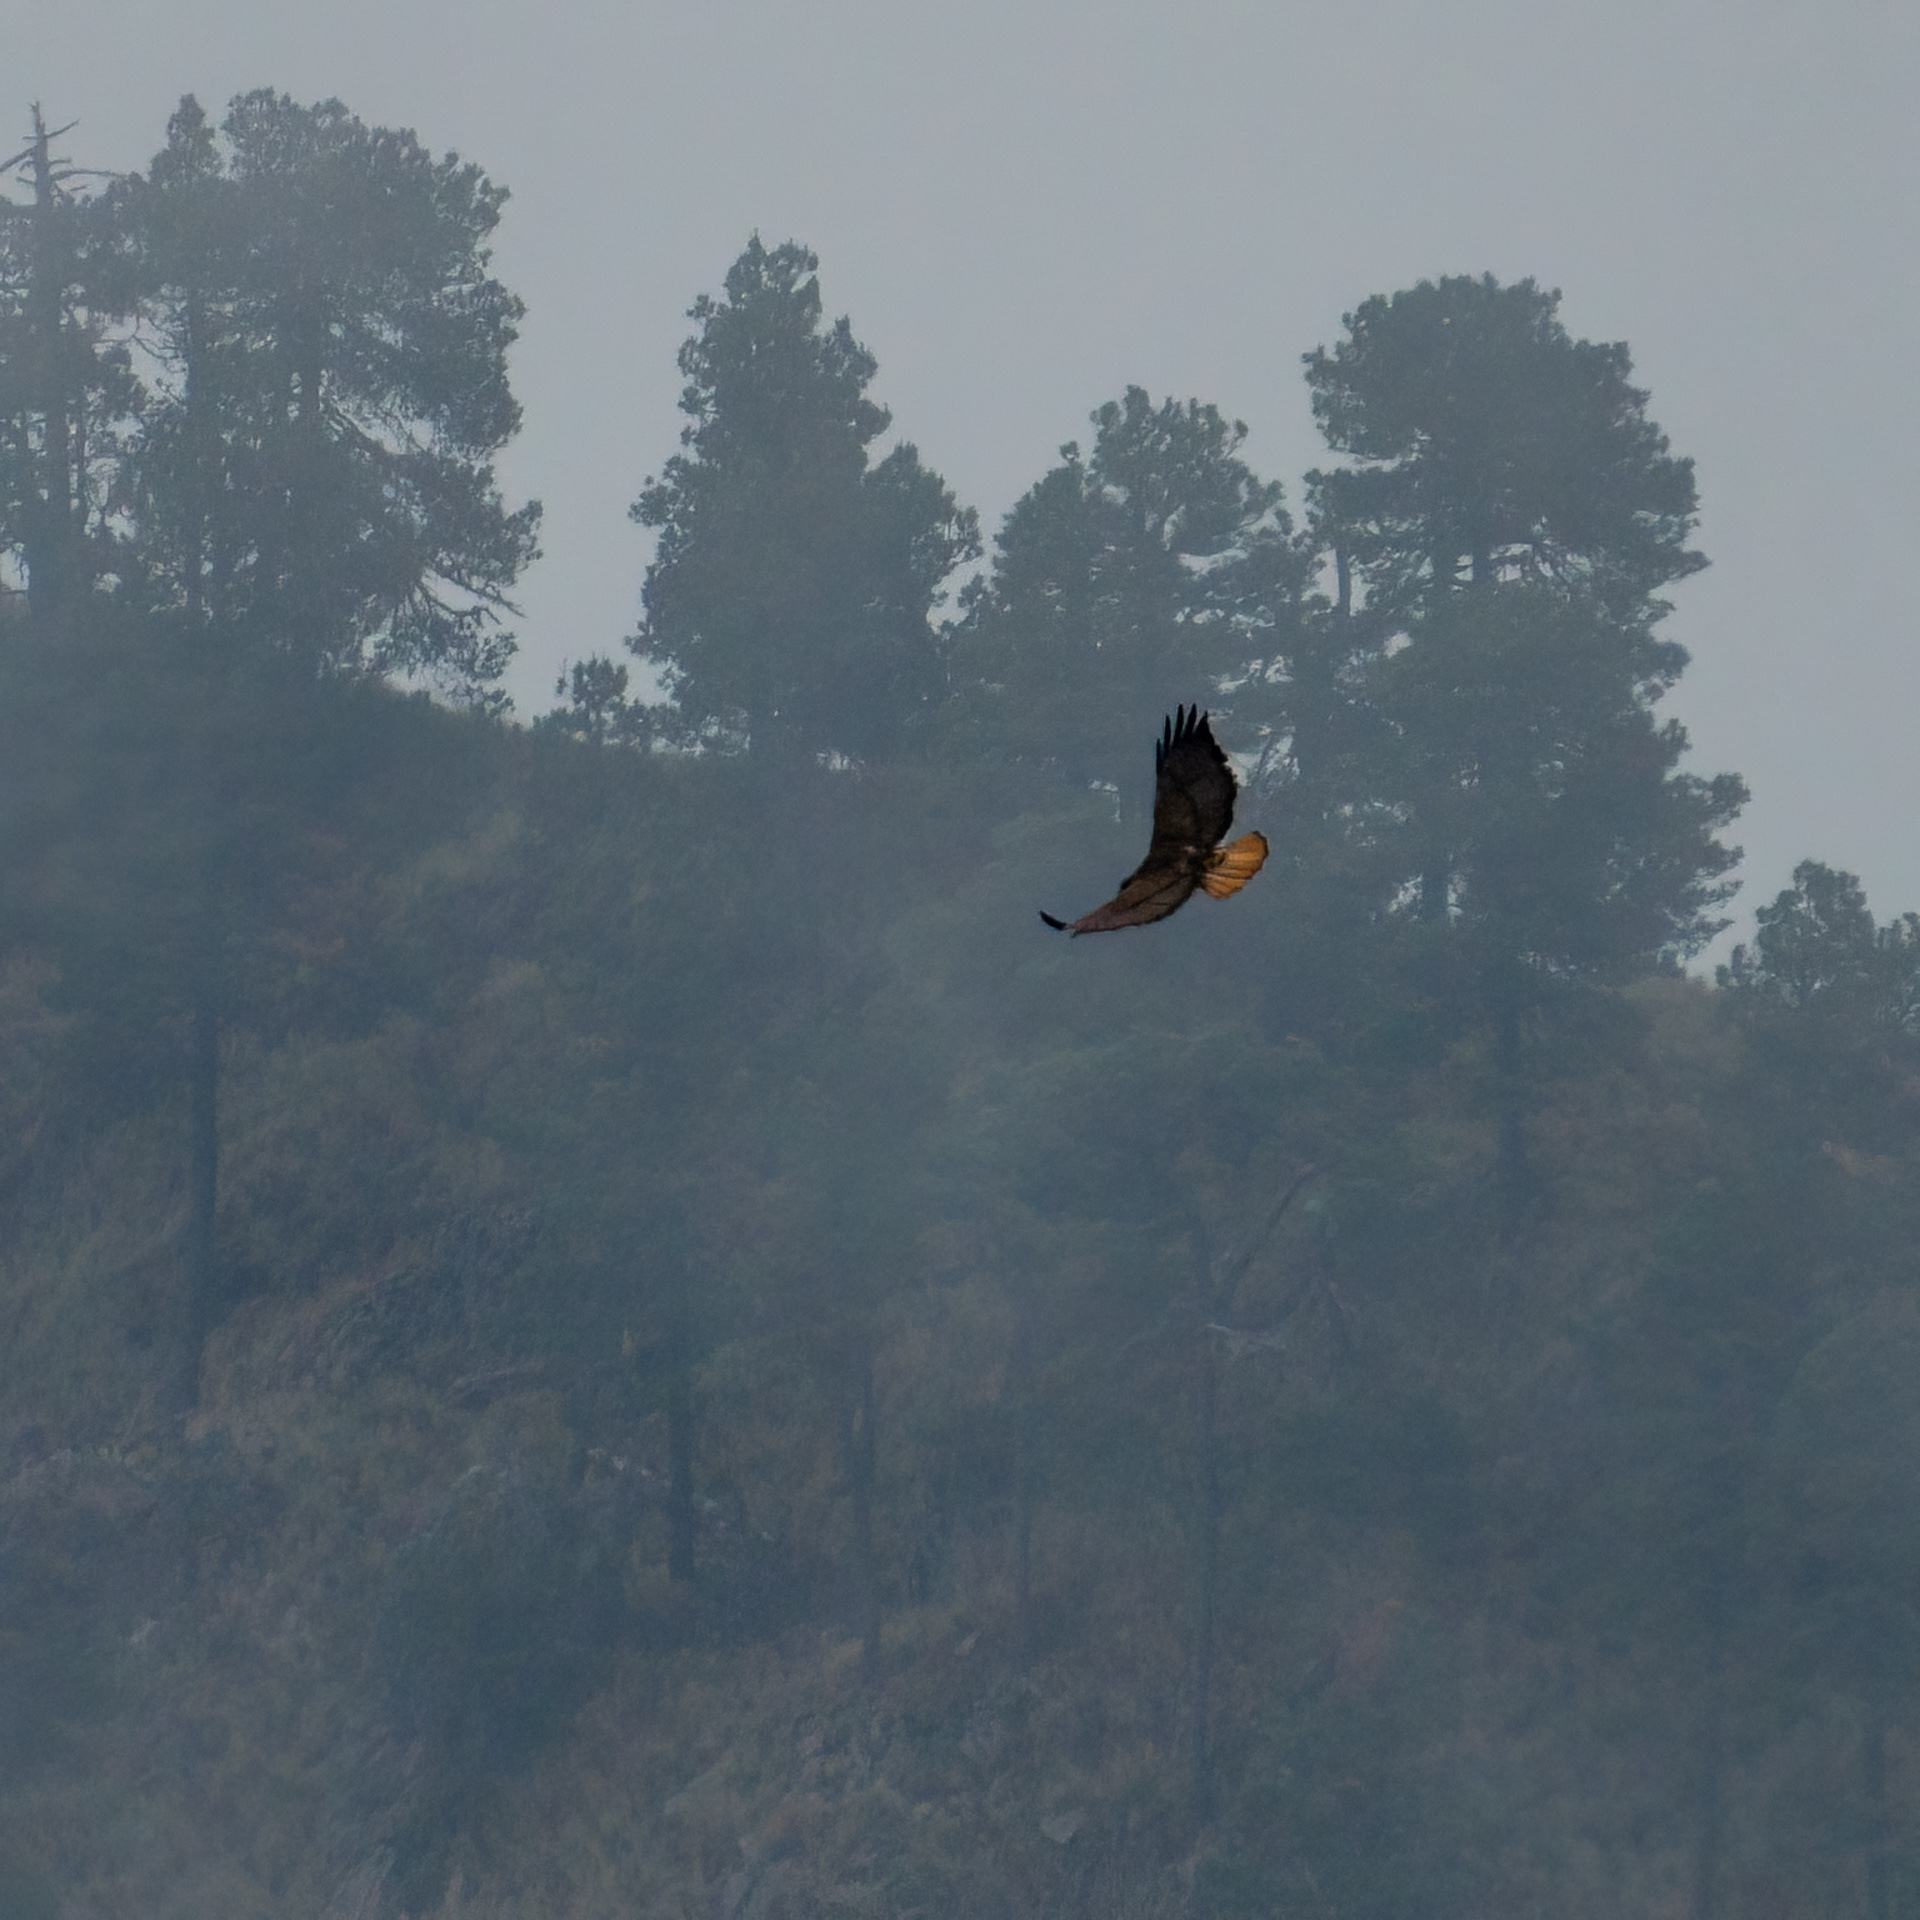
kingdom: Animalia
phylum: Chordata
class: Aves
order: Accipitriformes
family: Accipitridae
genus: Buteo
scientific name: Buteo jamaicensis
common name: Red-tailed hawk
